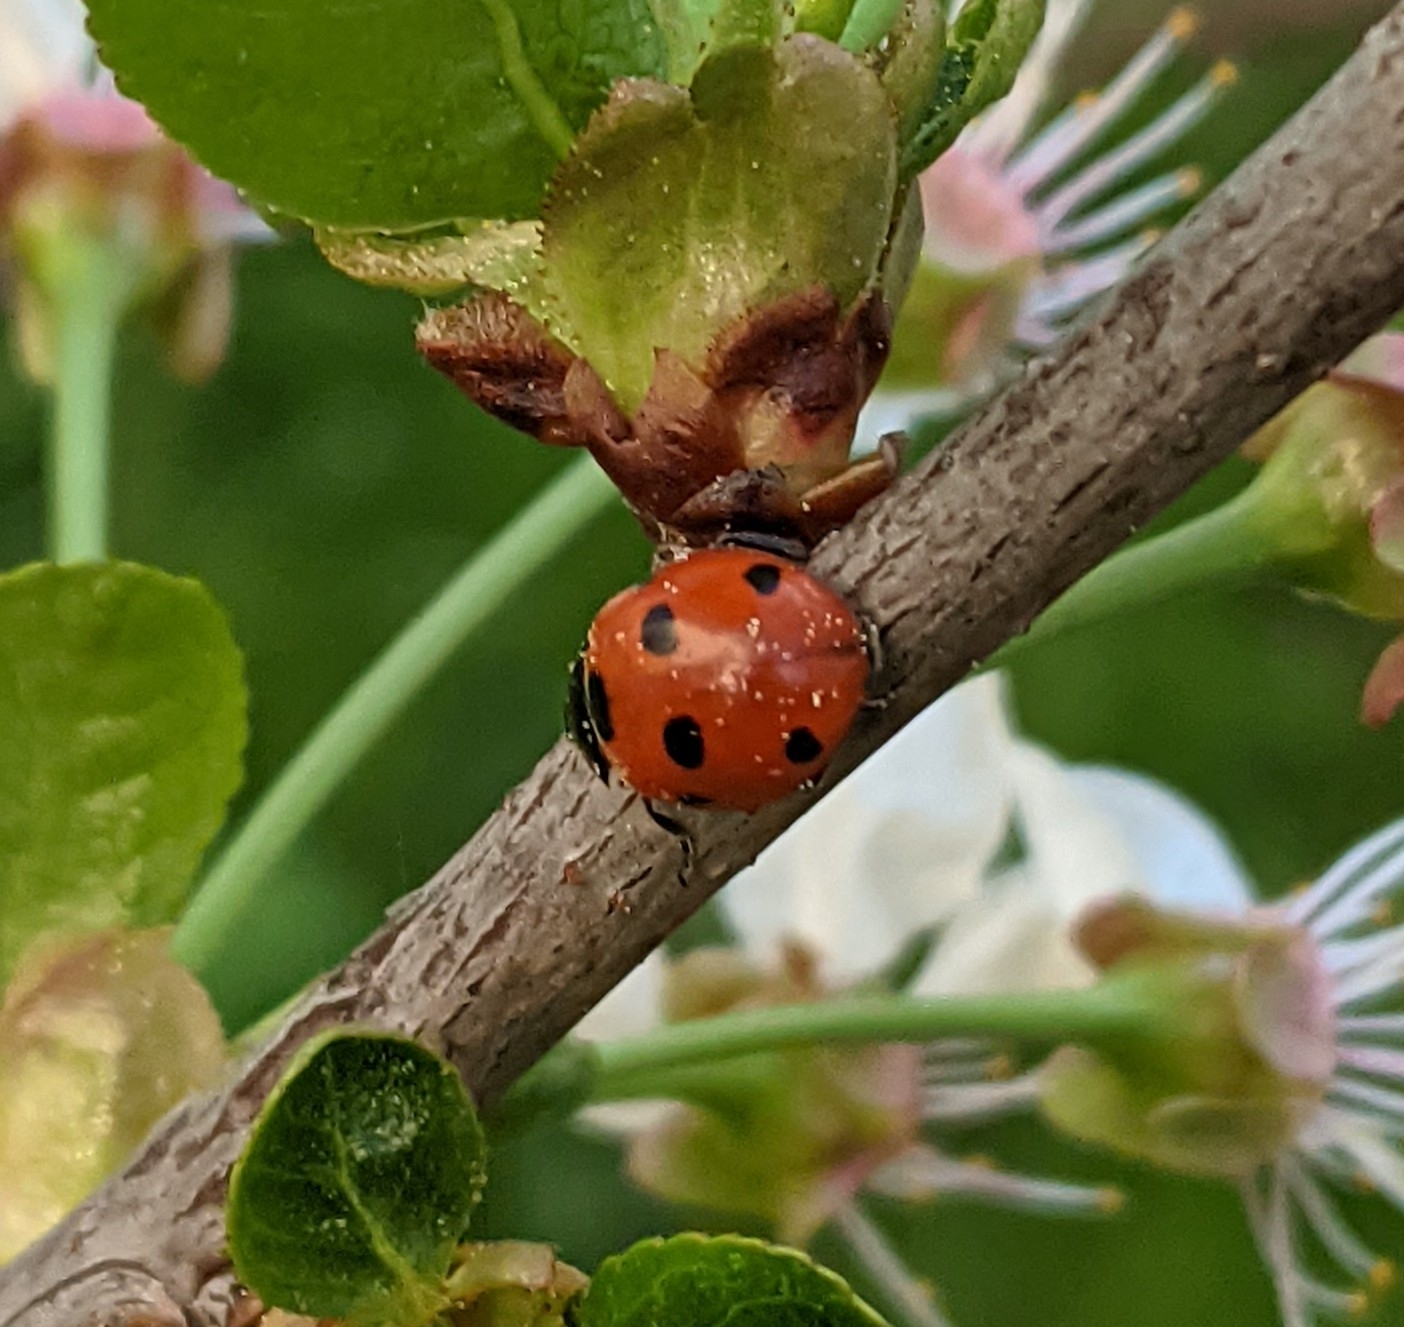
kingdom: Animalia
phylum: Arthropoda
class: Insecta
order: Coleoptera
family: Coccinellidae
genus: Coccinella
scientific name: Coccinella septempunctata
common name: Sevenspotted lady beetle
